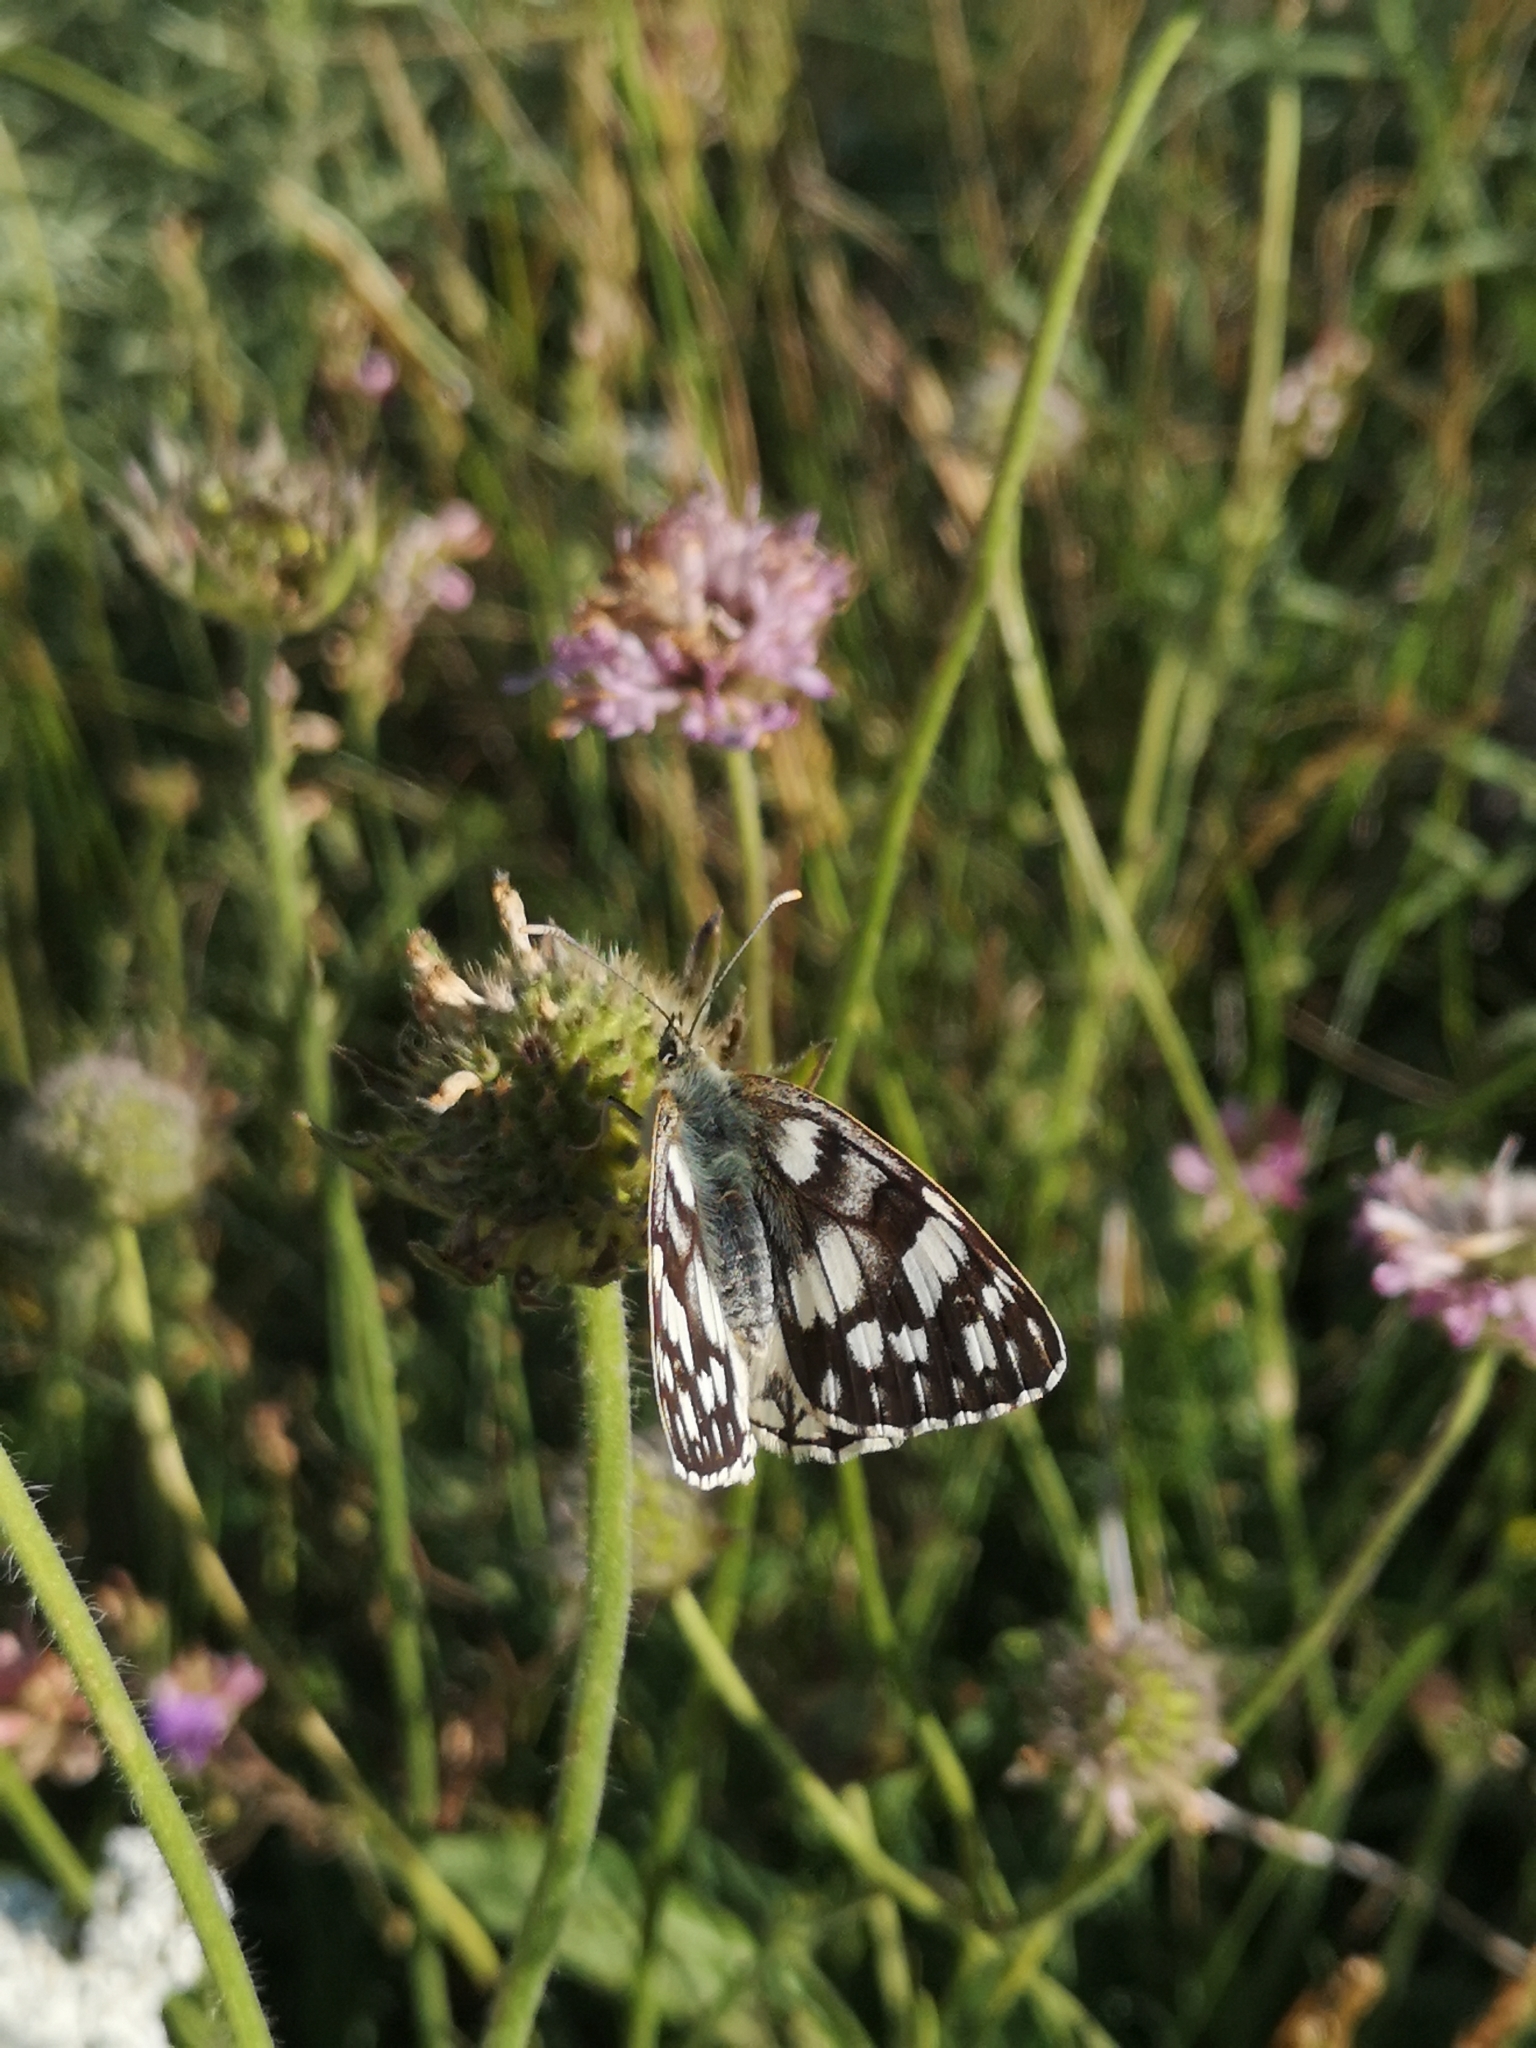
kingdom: Animalia
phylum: Arthropoda
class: Insecta
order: Lepidoptera
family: Nymphalidae
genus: Melanargia
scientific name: Melanargia japygia
